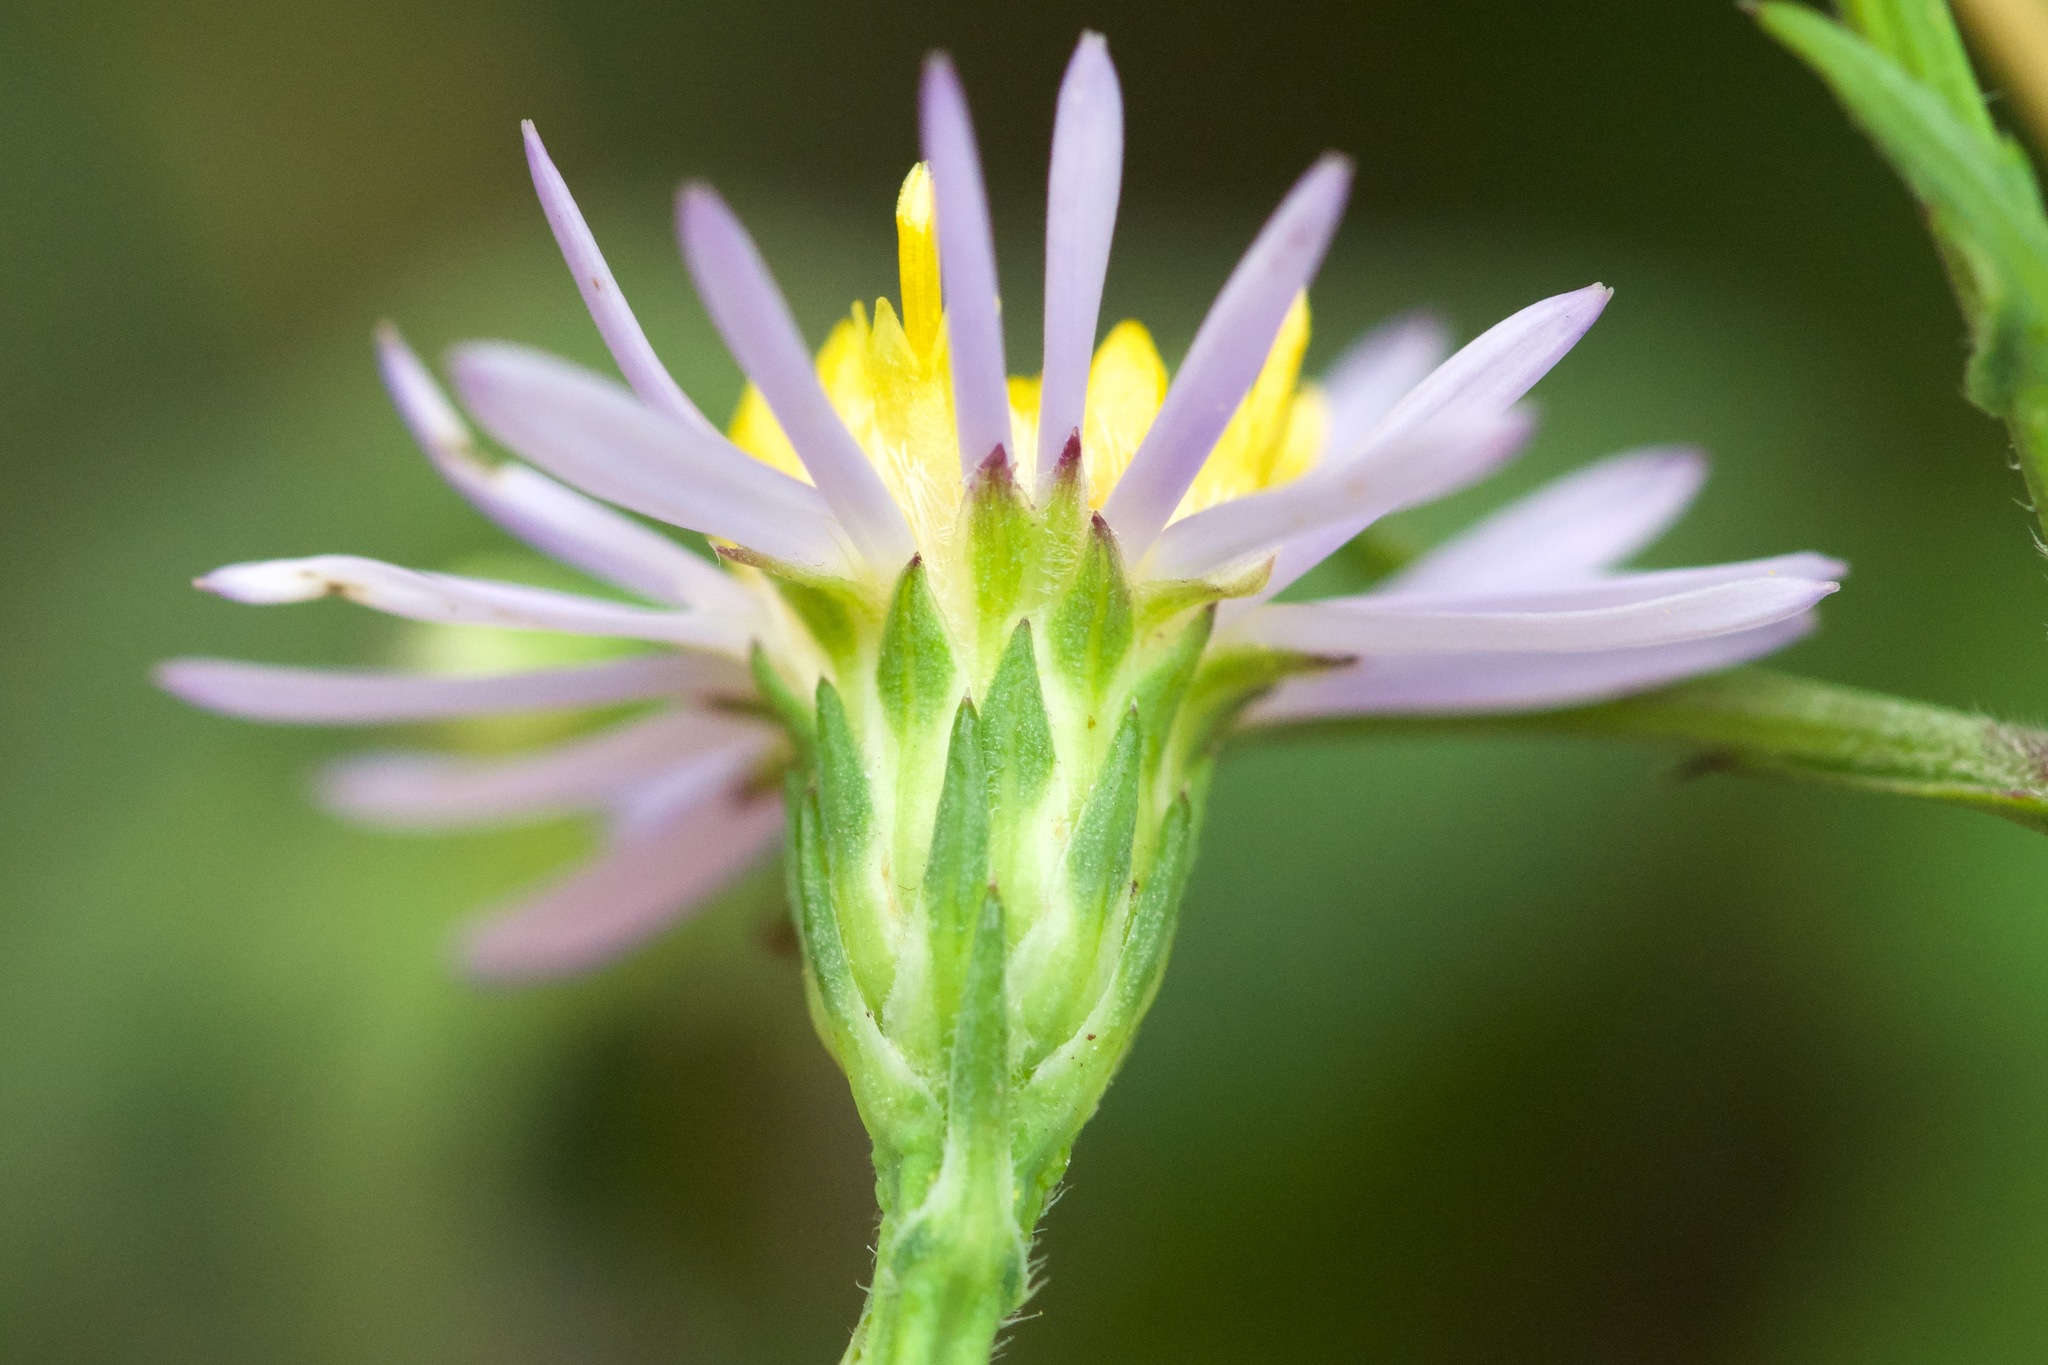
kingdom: Plantae
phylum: Tracheophyta
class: Magnoliopsida
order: Asterales
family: Asteraceae
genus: Symphyotrichum
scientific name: Symphyotrichum laeve
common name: Glaucous aster
